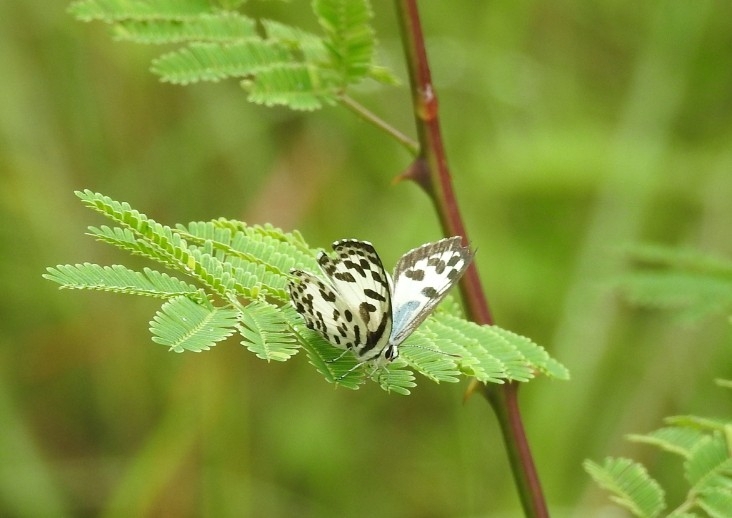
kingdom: Animalia
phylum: Arthropoda
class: Insecta
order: Lepidoptera
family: Lycaenidae
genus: Castalius
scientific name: Castalius rosimon
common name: Common pierrot
